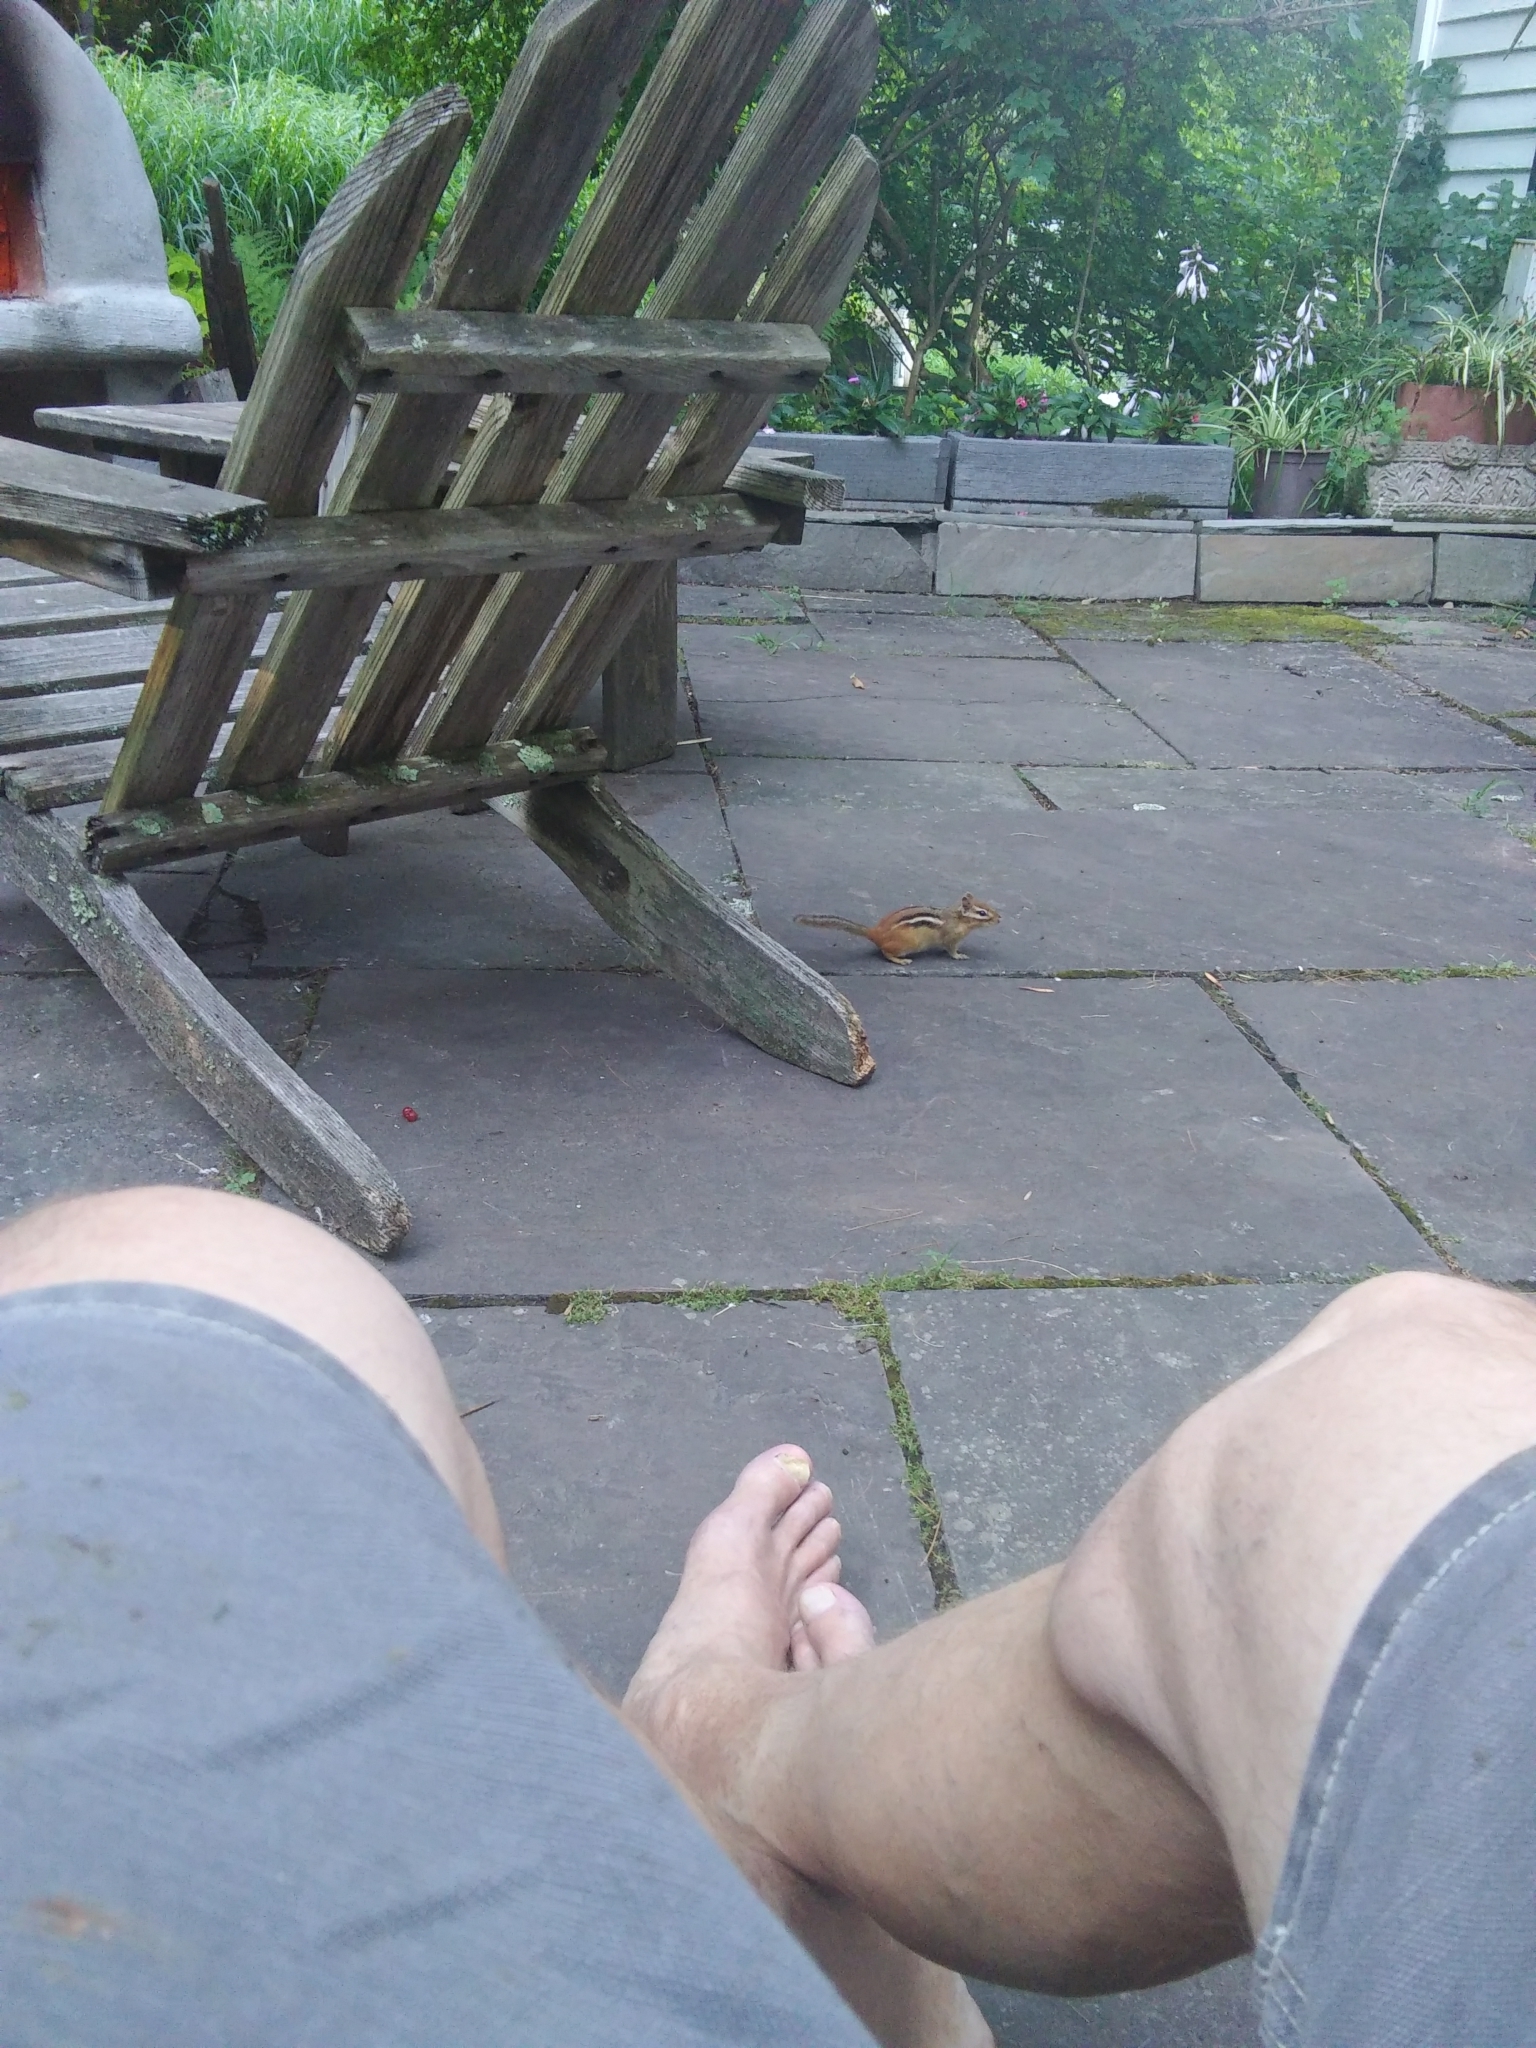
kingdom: Animalia
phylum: Chordata
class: Mammalia
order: Rodentia
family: Sciuridae
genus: Tamias
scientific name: Tamias striatus
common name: Eastern chipmunk
